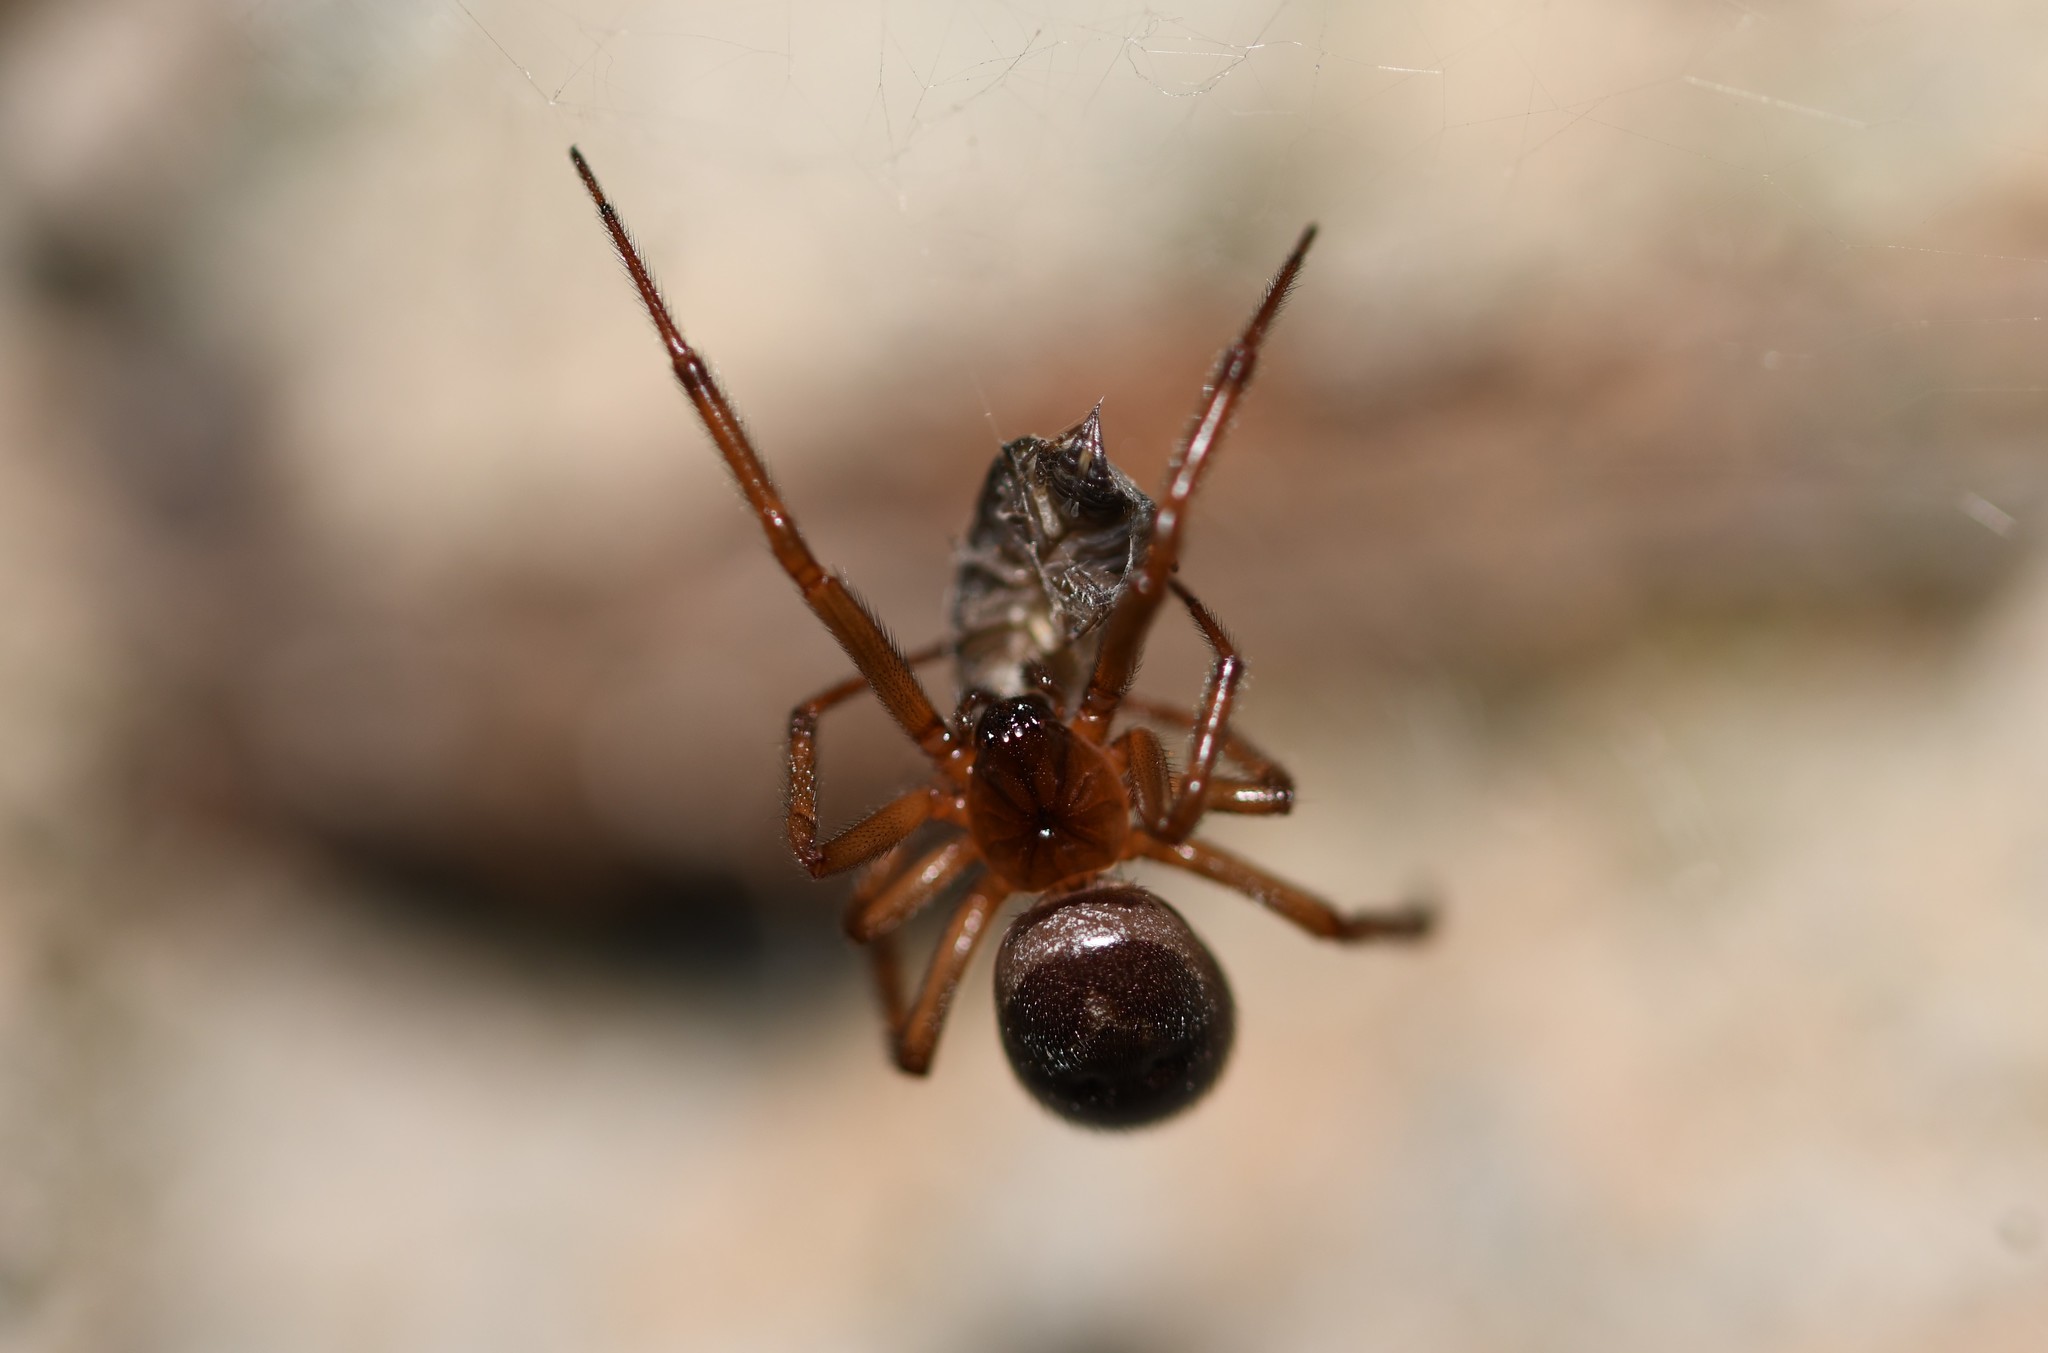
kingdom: Animalia
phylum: Arthropoda
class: Arachnida
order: Araneae
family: Theridiidae
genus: Steatoda
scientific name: Steatoda nobilis
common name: Cobweb weaver
